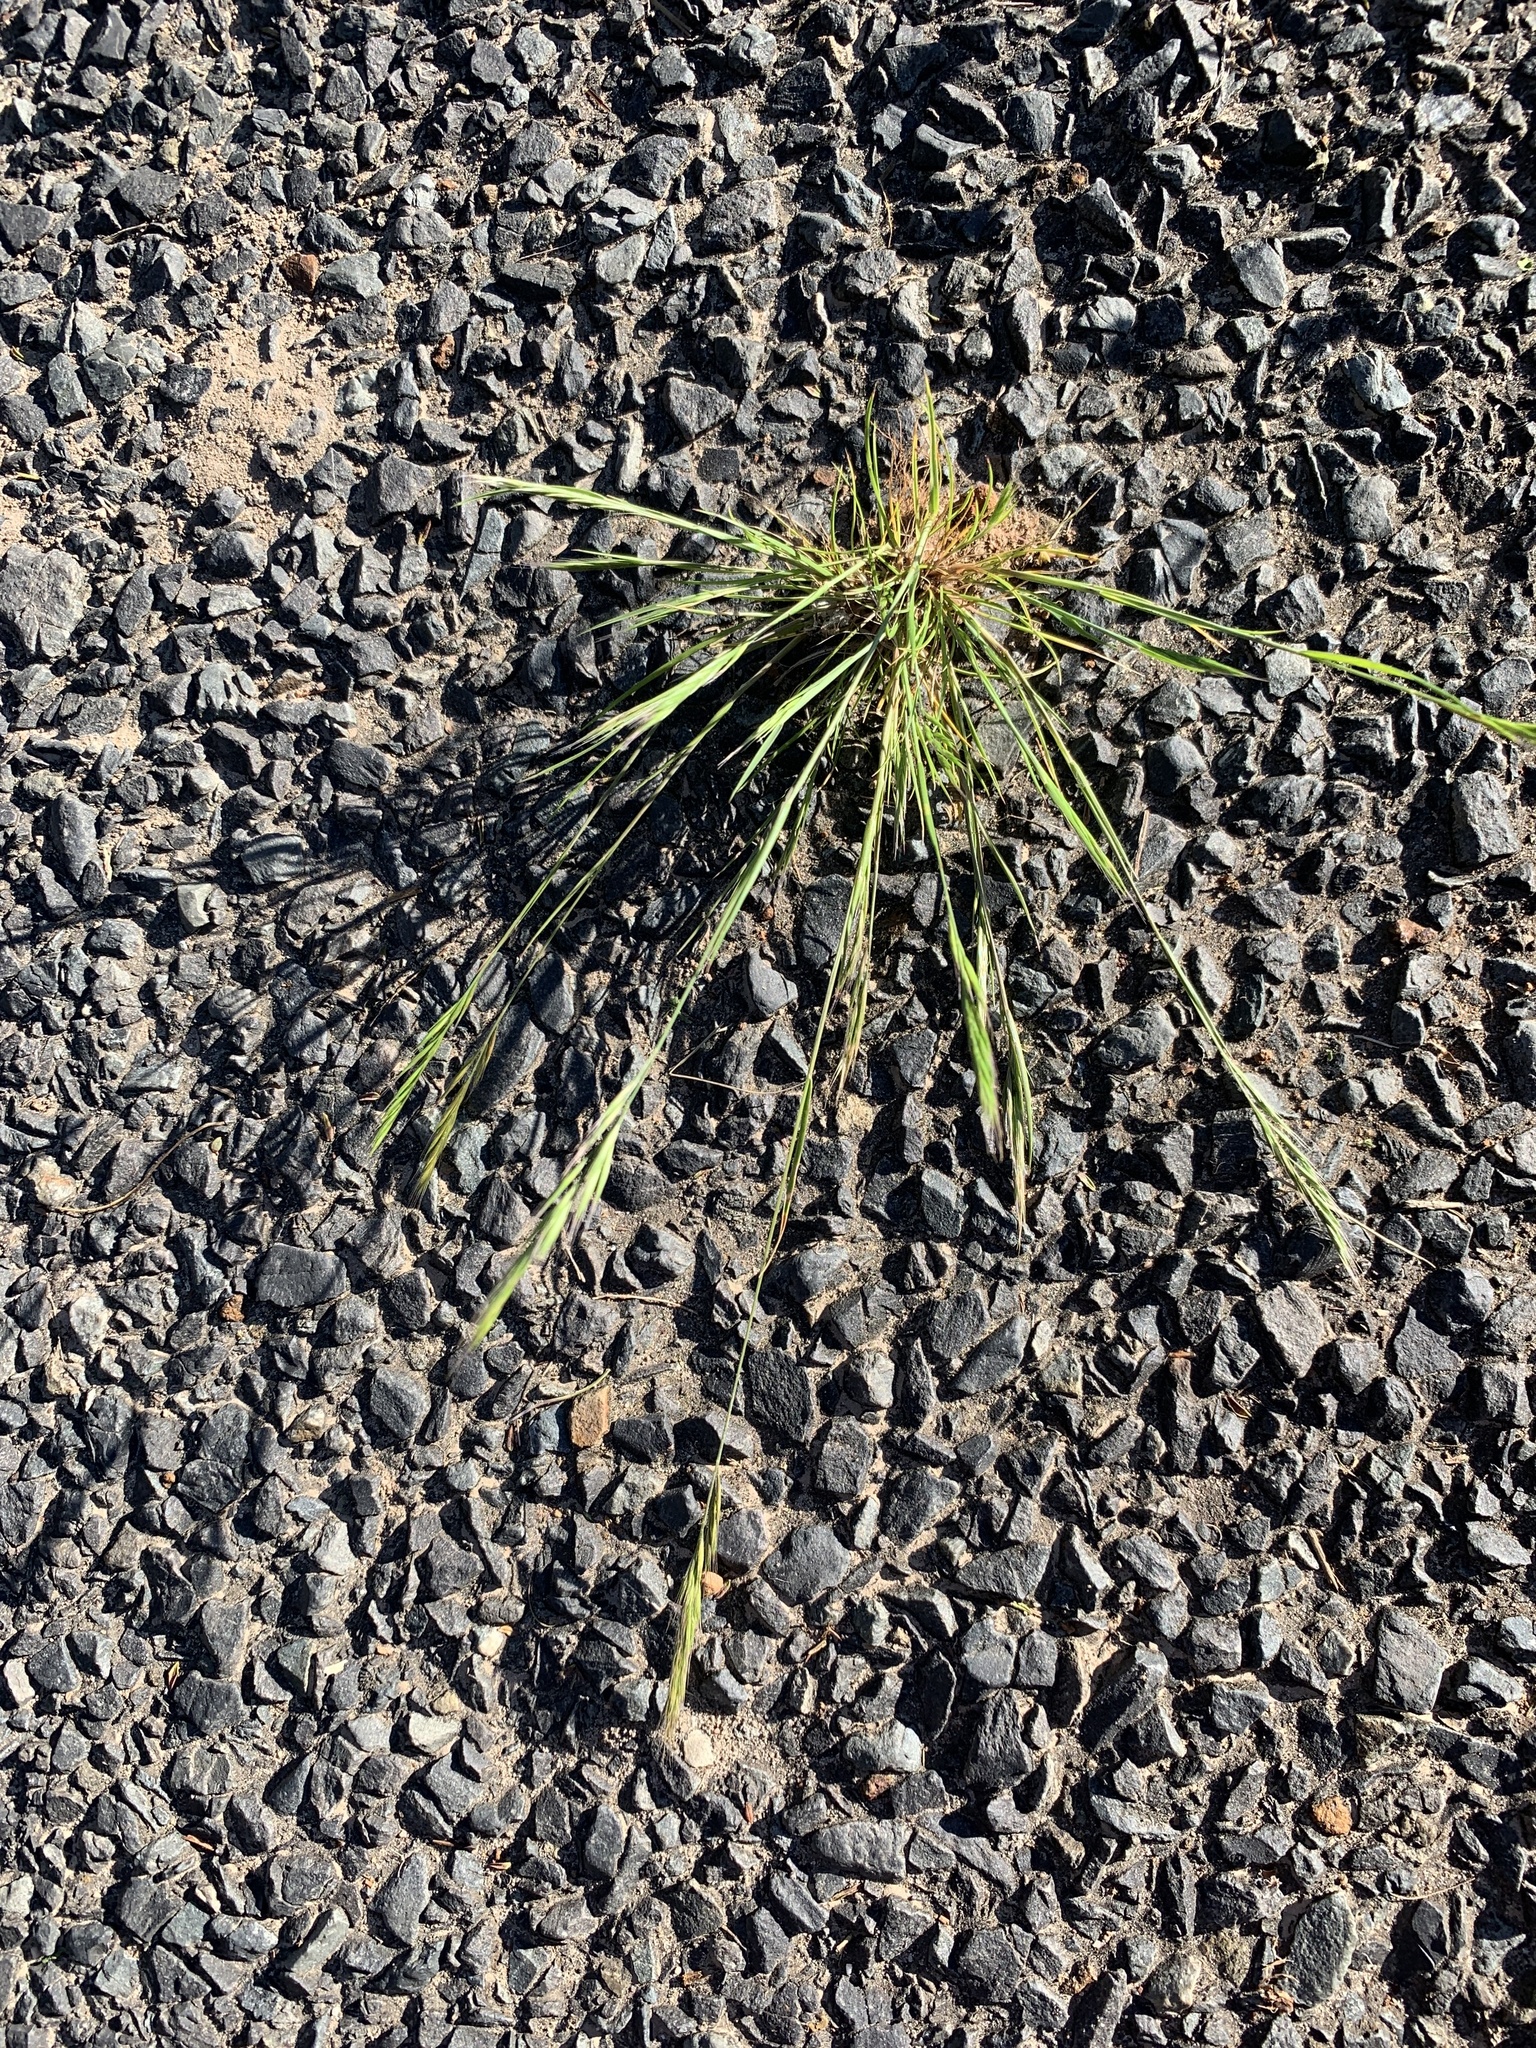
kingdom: Plantae
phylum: Tracheophyta
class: Liliopsida
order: Poales
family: Poaceae
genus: Festuca
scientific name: Festuca myuros
